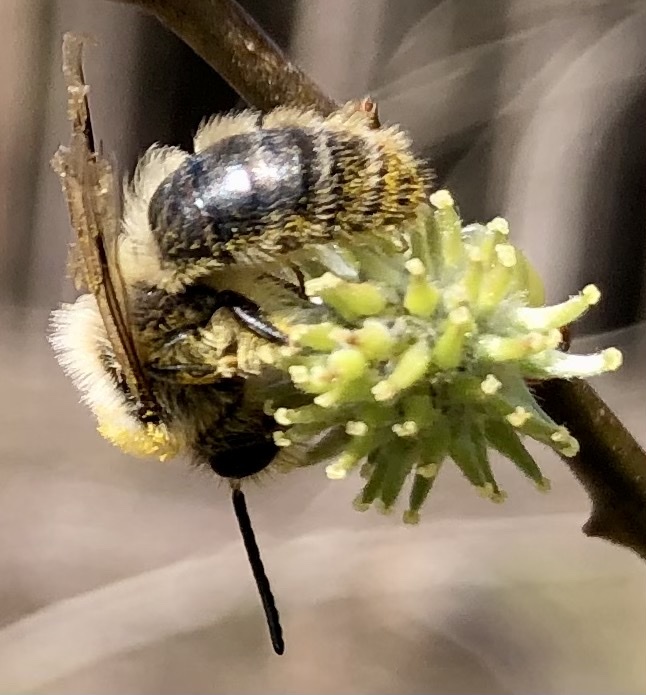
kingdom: Animalia
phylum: Arthropoda
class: Insecta
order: Hymenoptera
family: Andrenidae
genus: Andrena
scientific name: Andrena vaga
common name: Grey-backed mining bee
